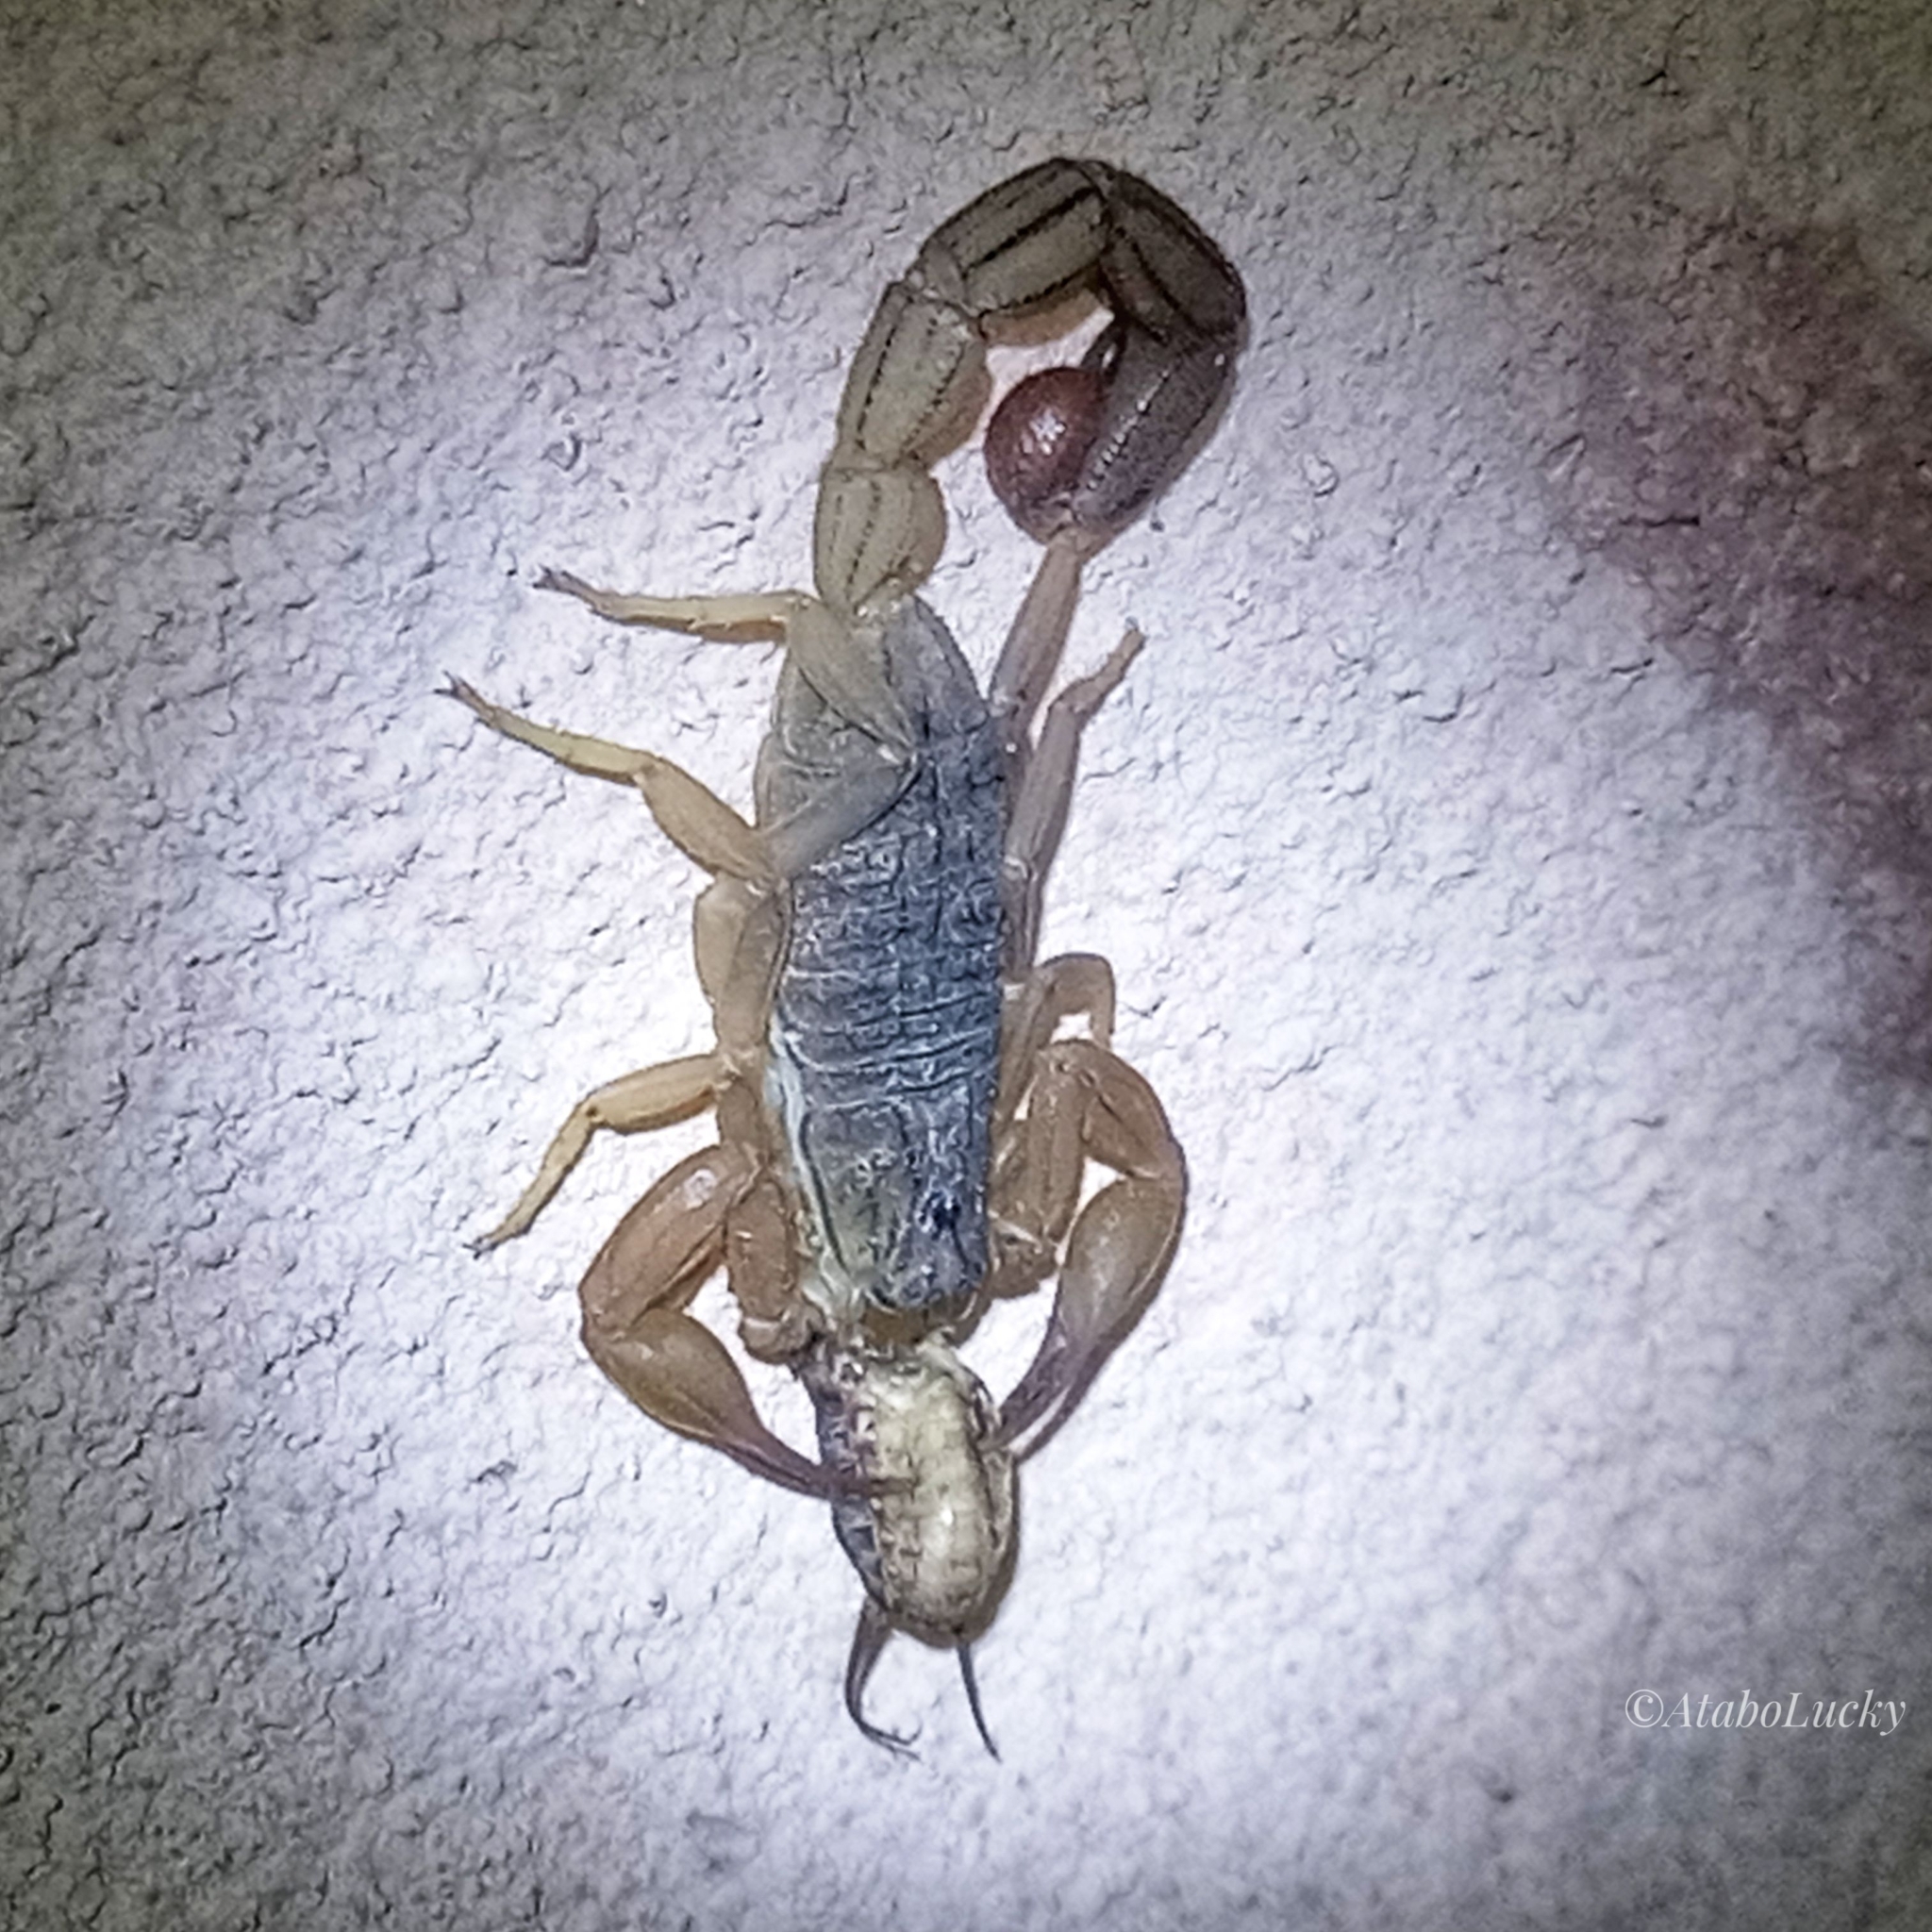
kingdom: Animalia
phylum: Arthropoda
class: Arachnida
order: Scorpiones
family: Buthidae
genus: Hottentotta
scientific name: Hottentotta hottentotta
